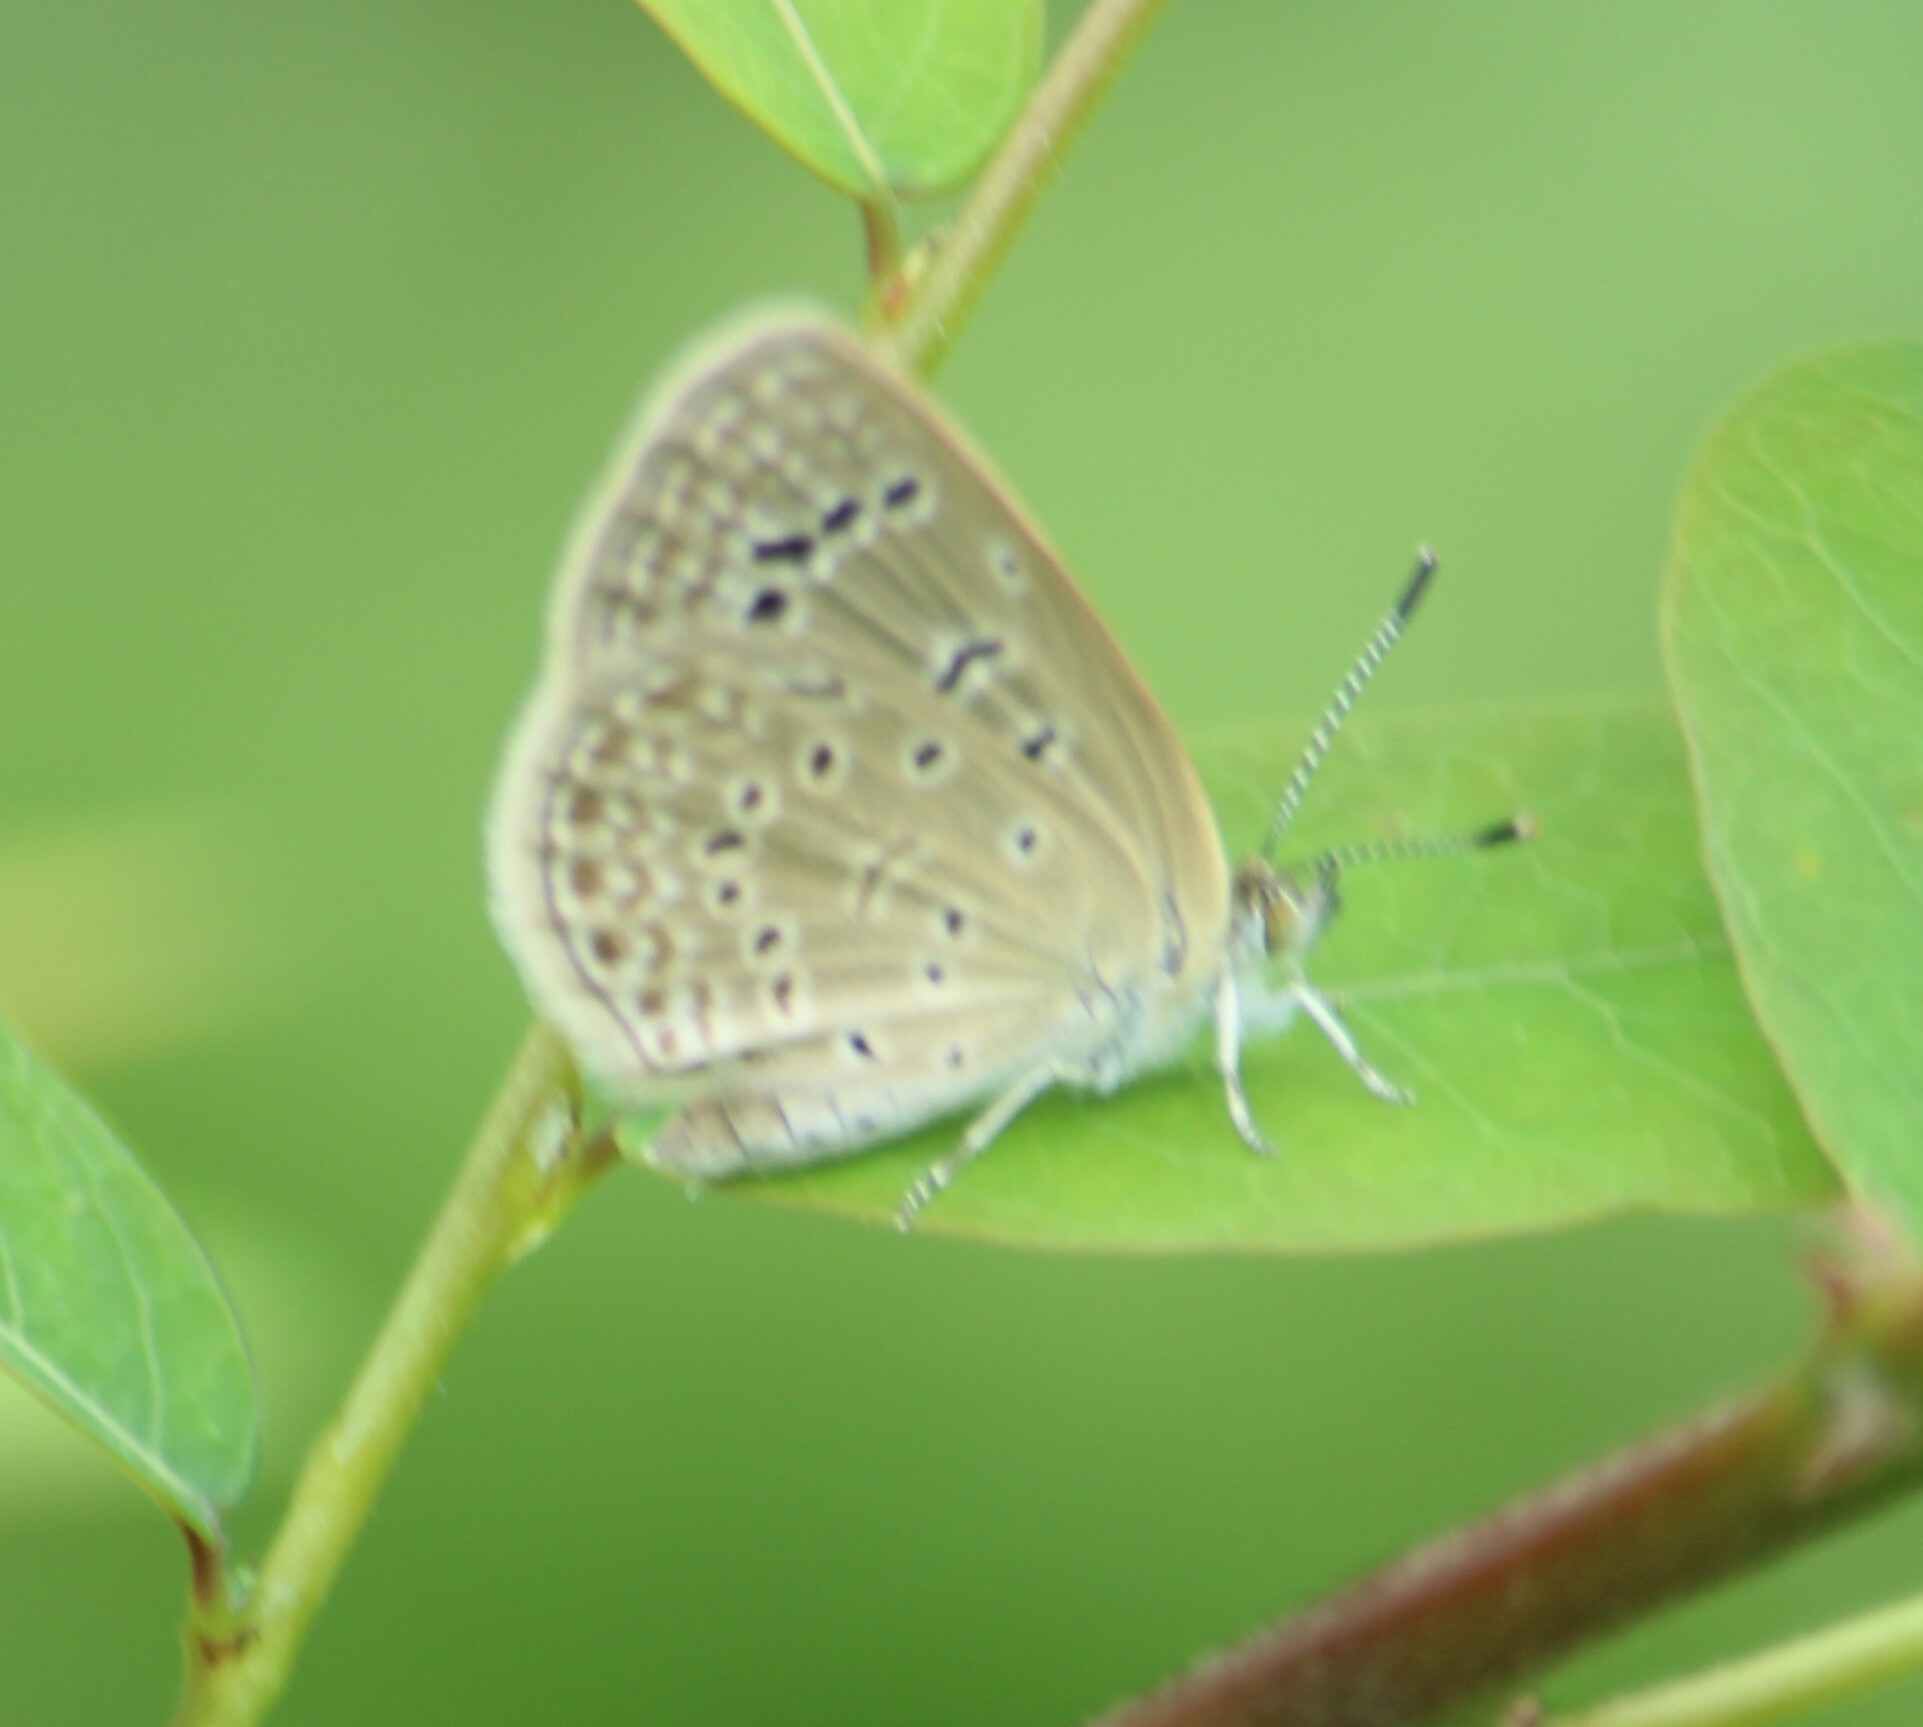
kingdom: Animalia
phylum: Arthropoda
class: Insecta
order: Lepidoptera
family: Lycaenidae
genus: Zizeeria
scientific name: Zizeeria karsandra
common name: Dark grass blue
